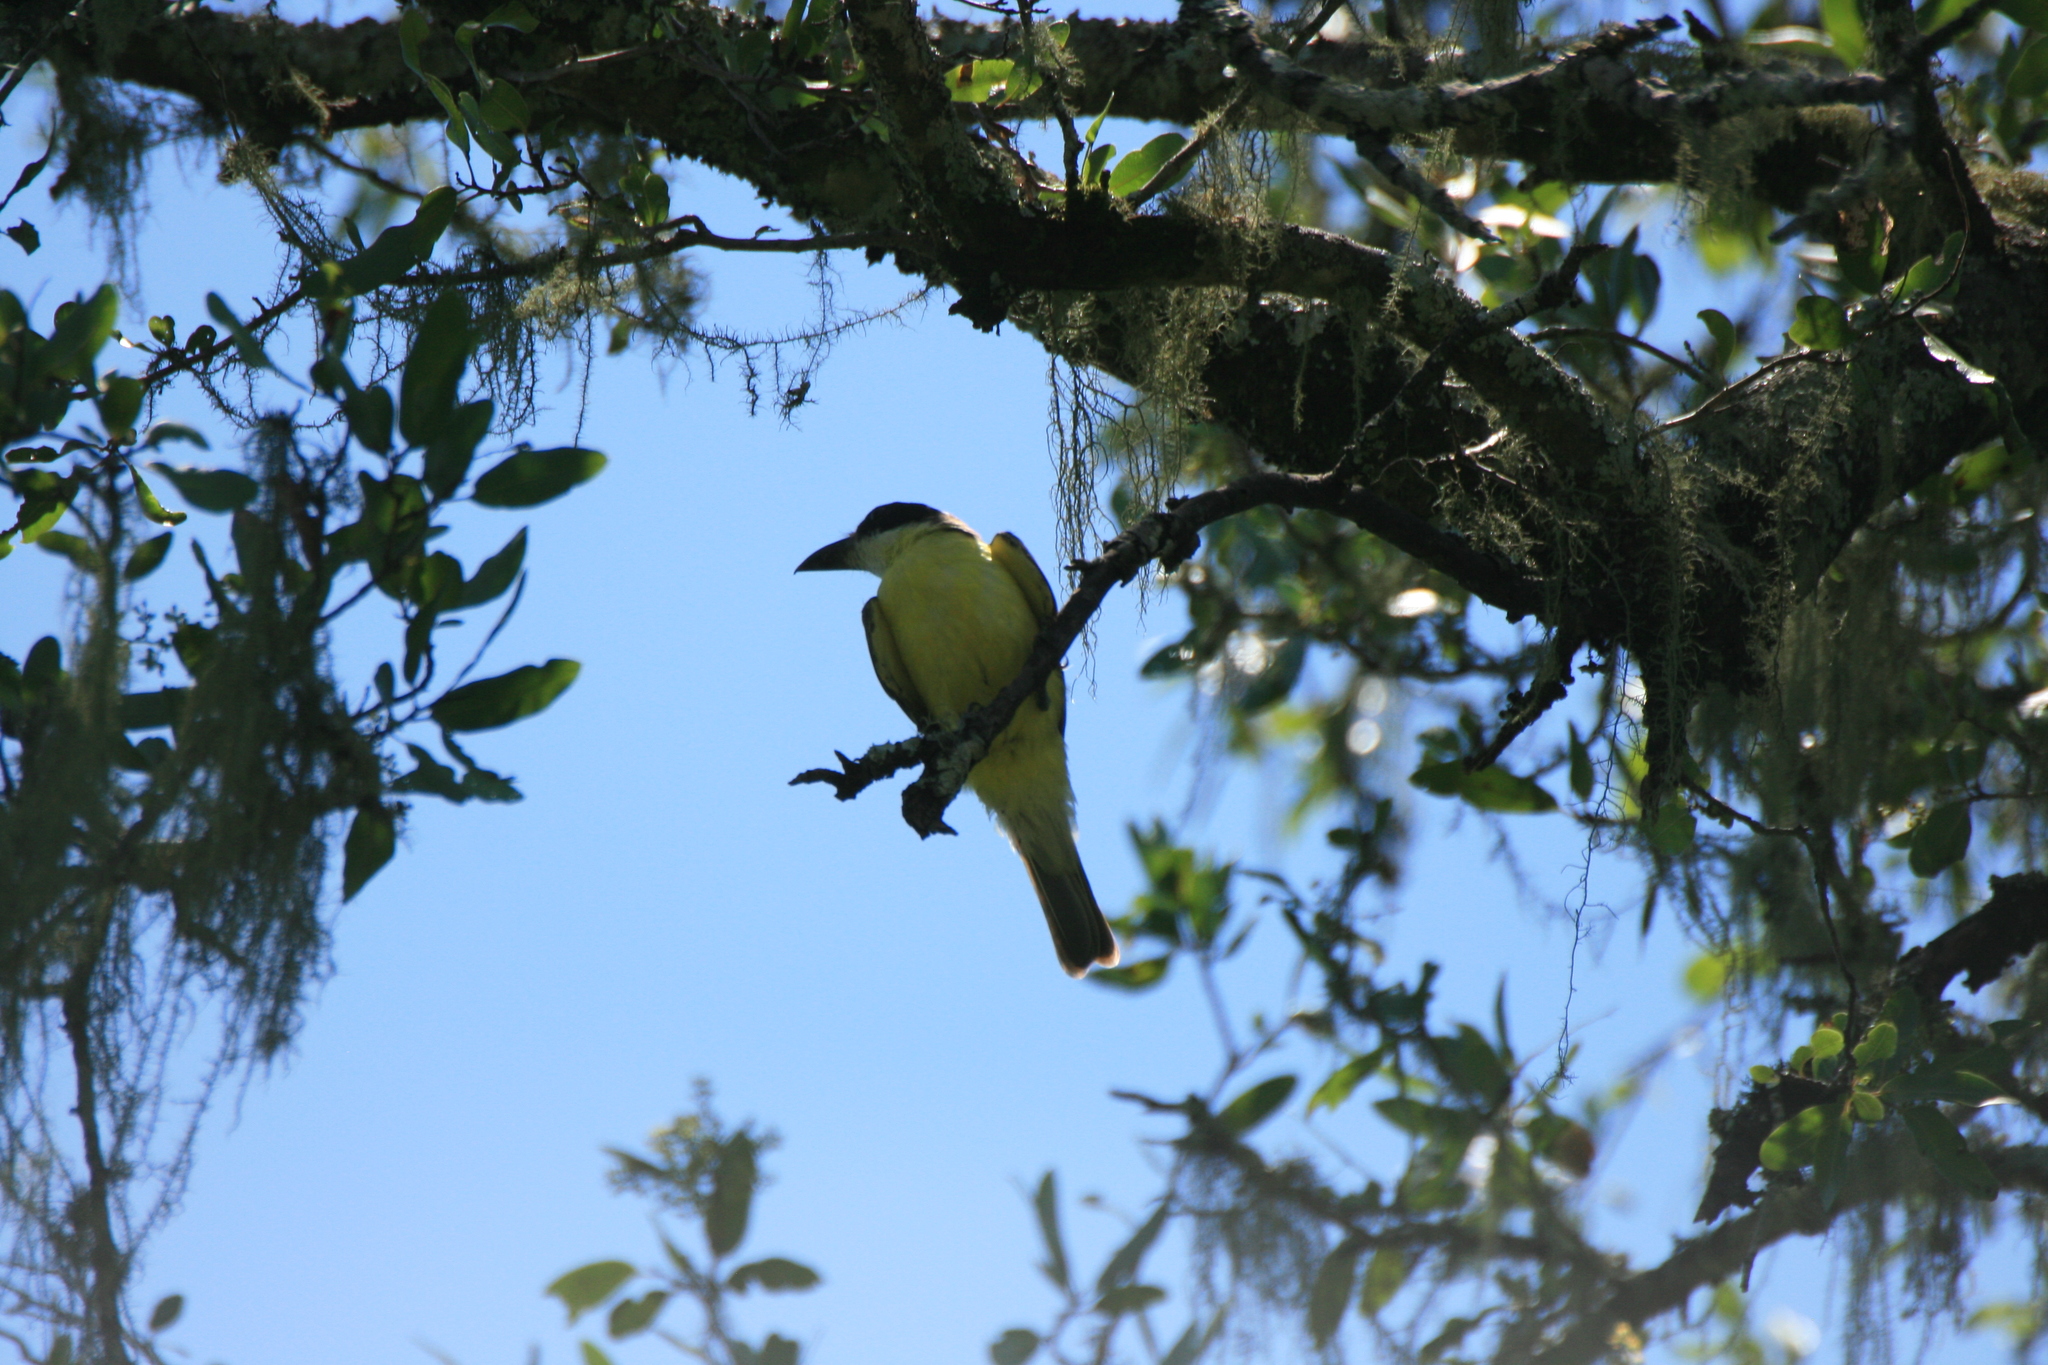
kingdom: Animalia
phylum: Chordata
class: Aves
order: Passeriformes
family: Tyrannidae
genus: Megarynchus
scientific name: Megarynchus pitangua
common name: Boat-billed flycatcher
